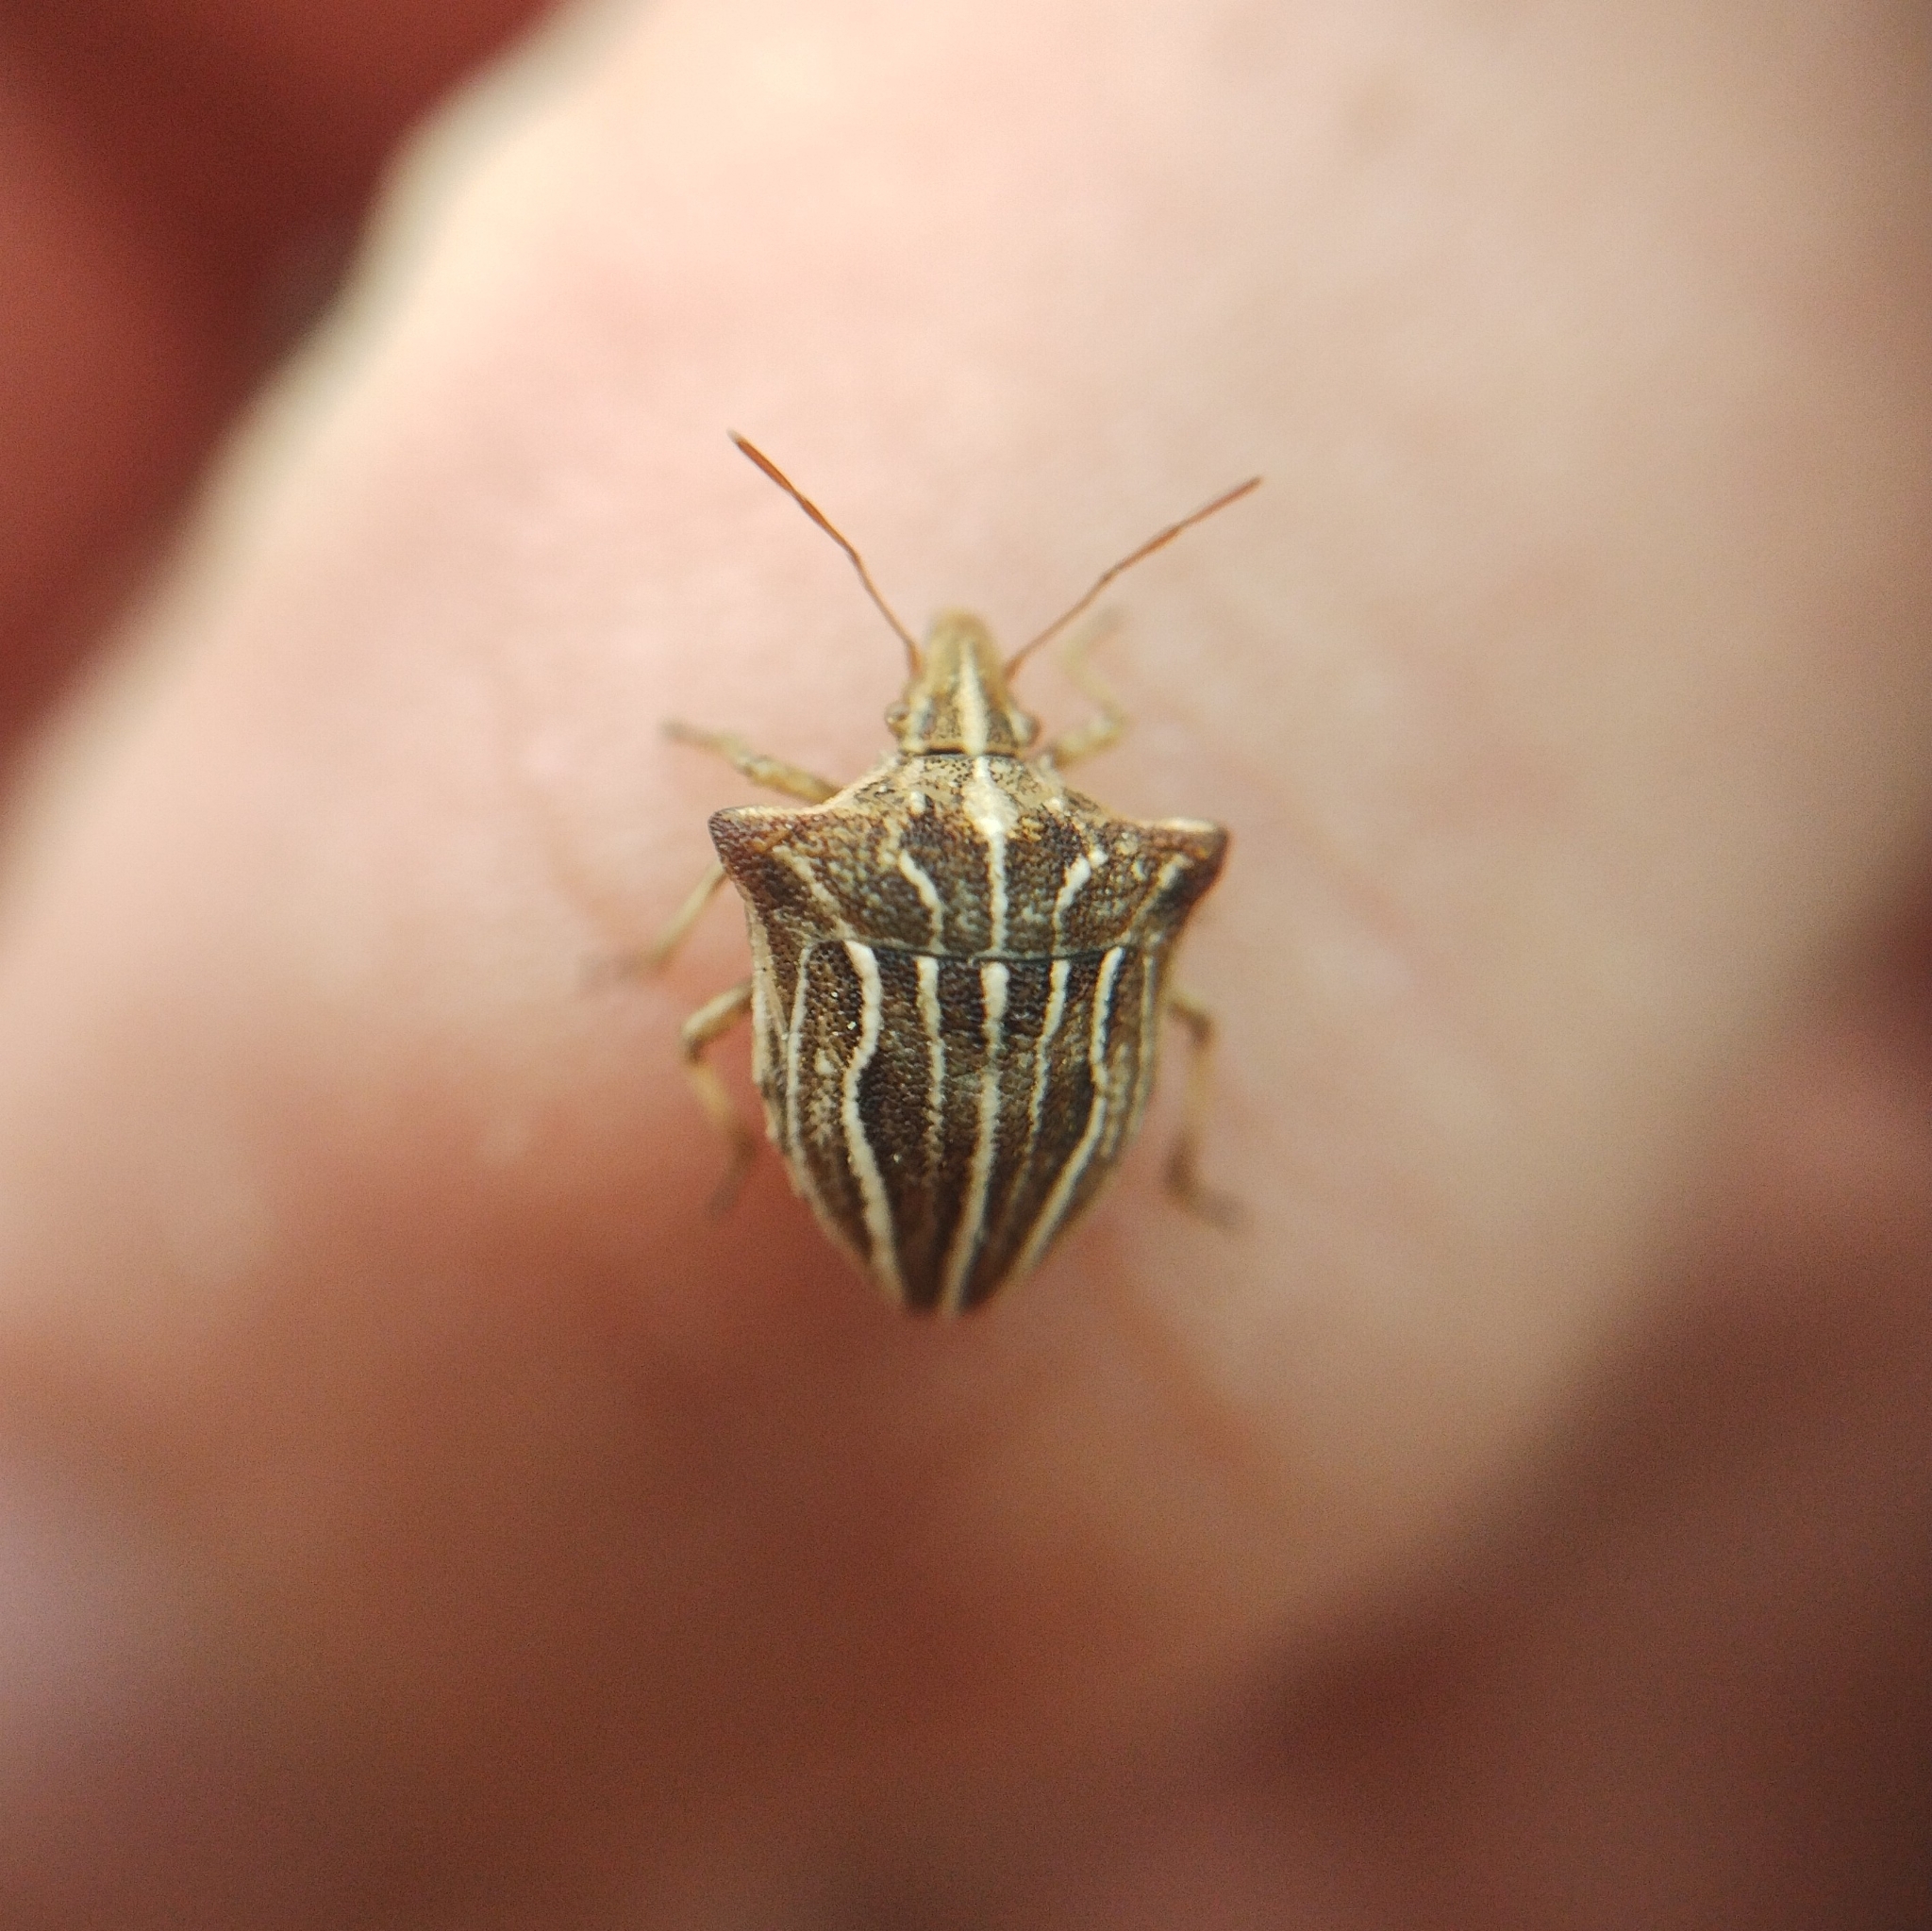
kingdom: Animalia
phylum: Arthropoda
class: Insecta
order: Hemiptera
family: Pentatomidae
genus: Ancyrosoma
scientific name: Ancyrosoma leucogrammes
